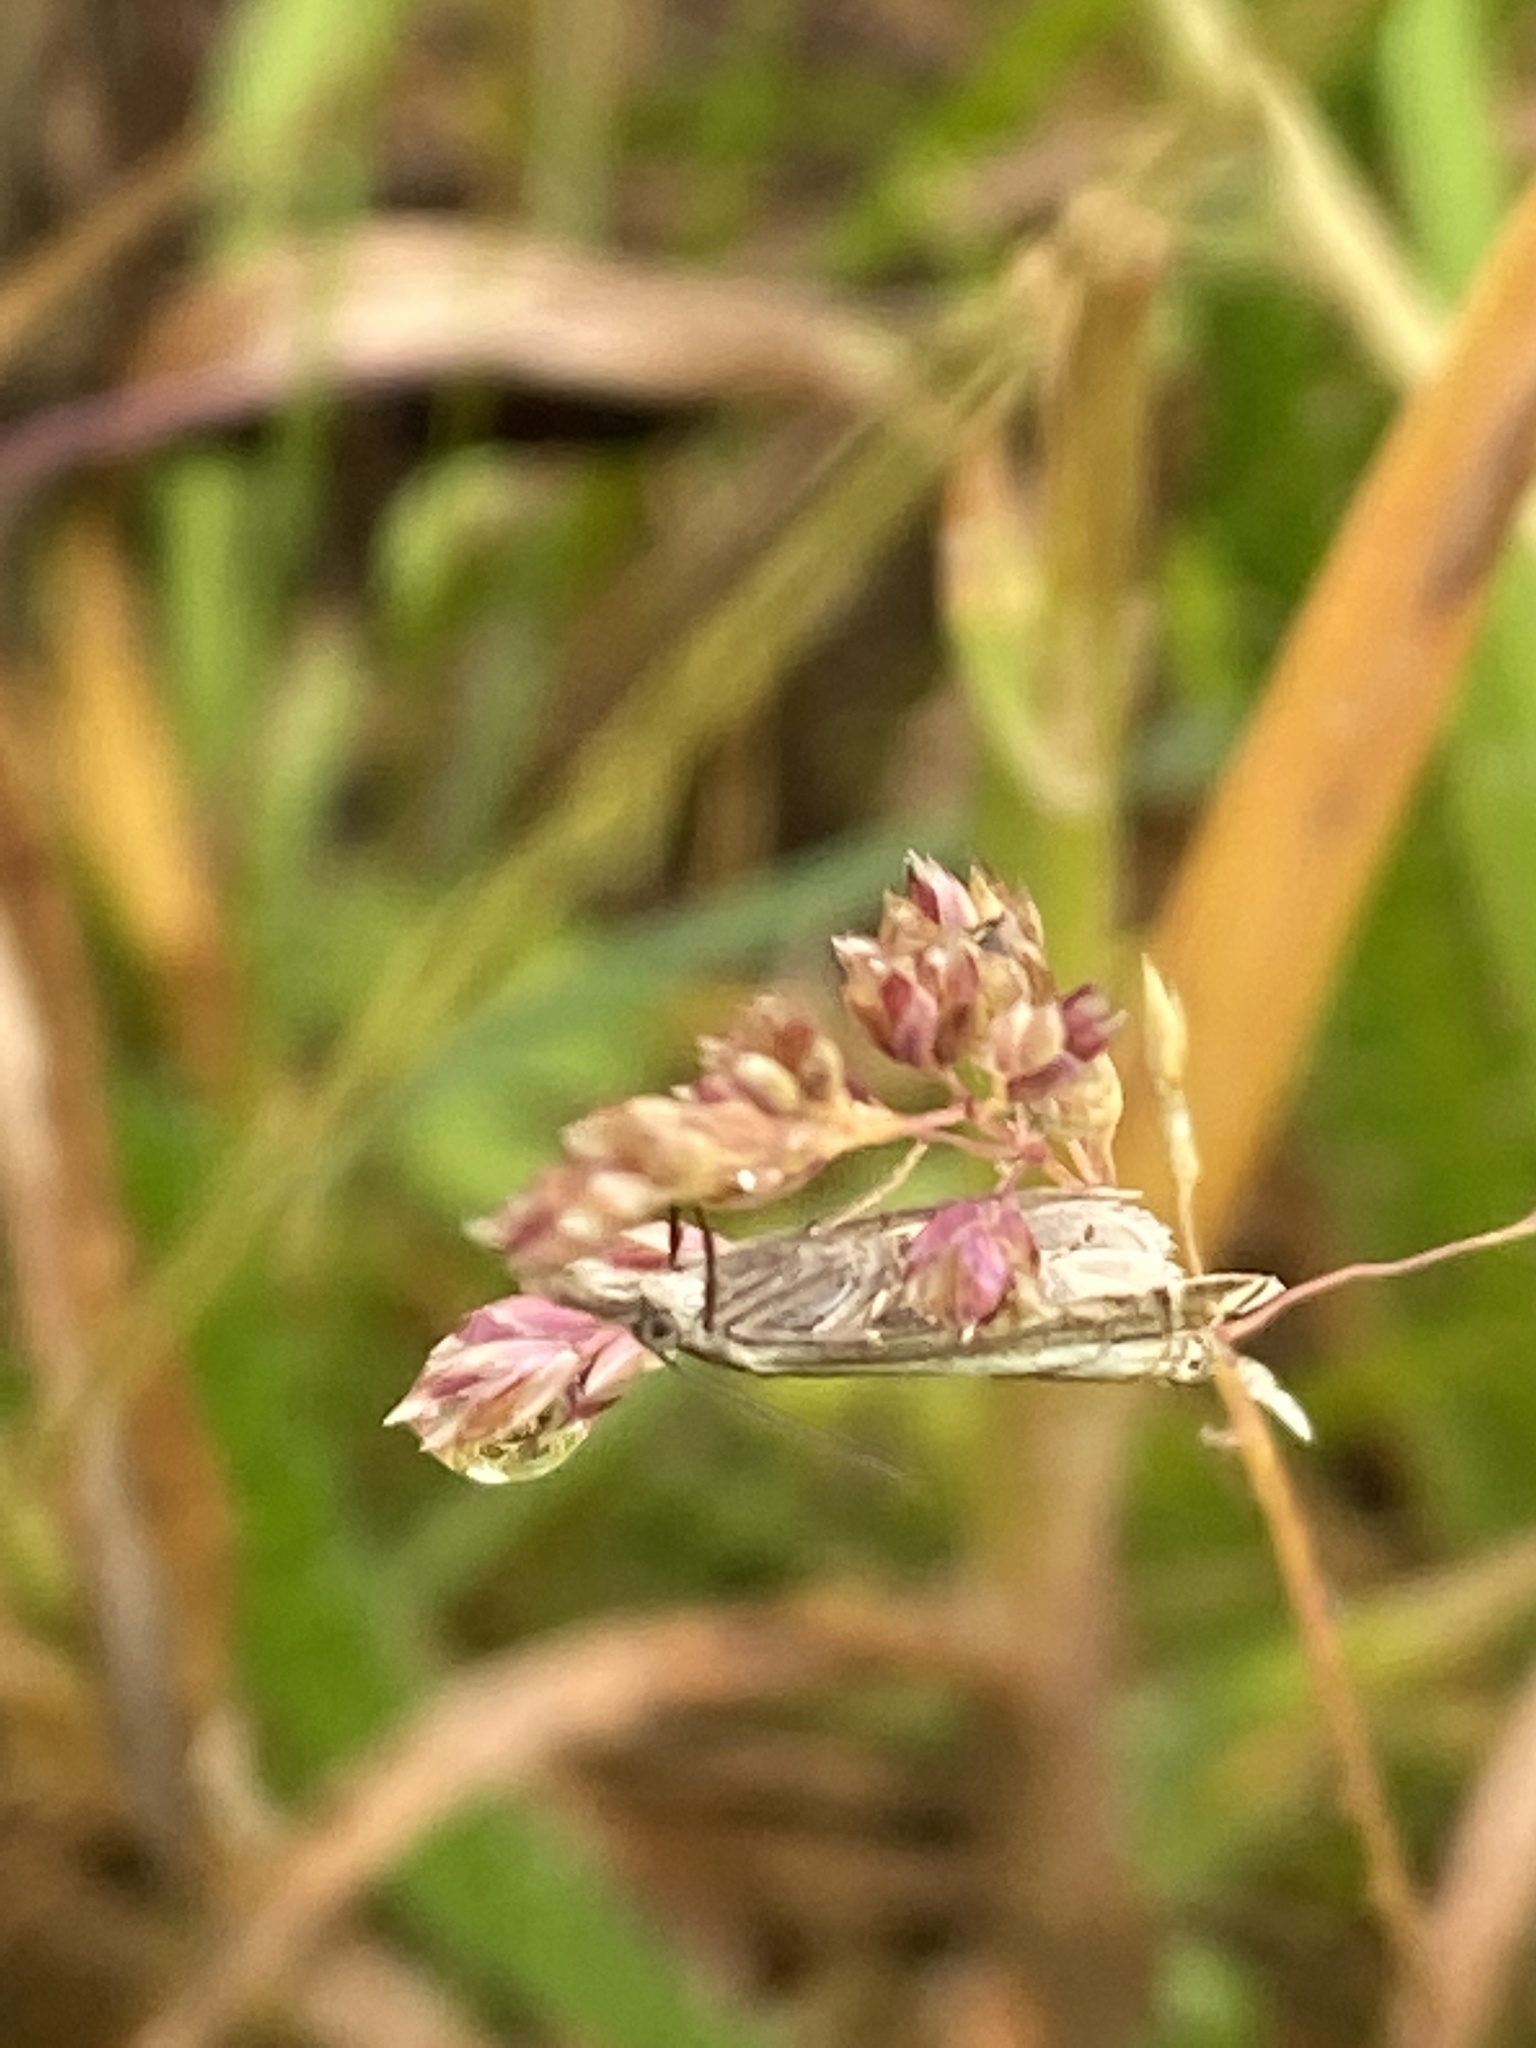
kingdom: Animalia
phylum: Arthropoda
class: Insecta
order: Lepidoptera
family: Crambidae
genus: Crambus
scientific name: Crambus nemorella
